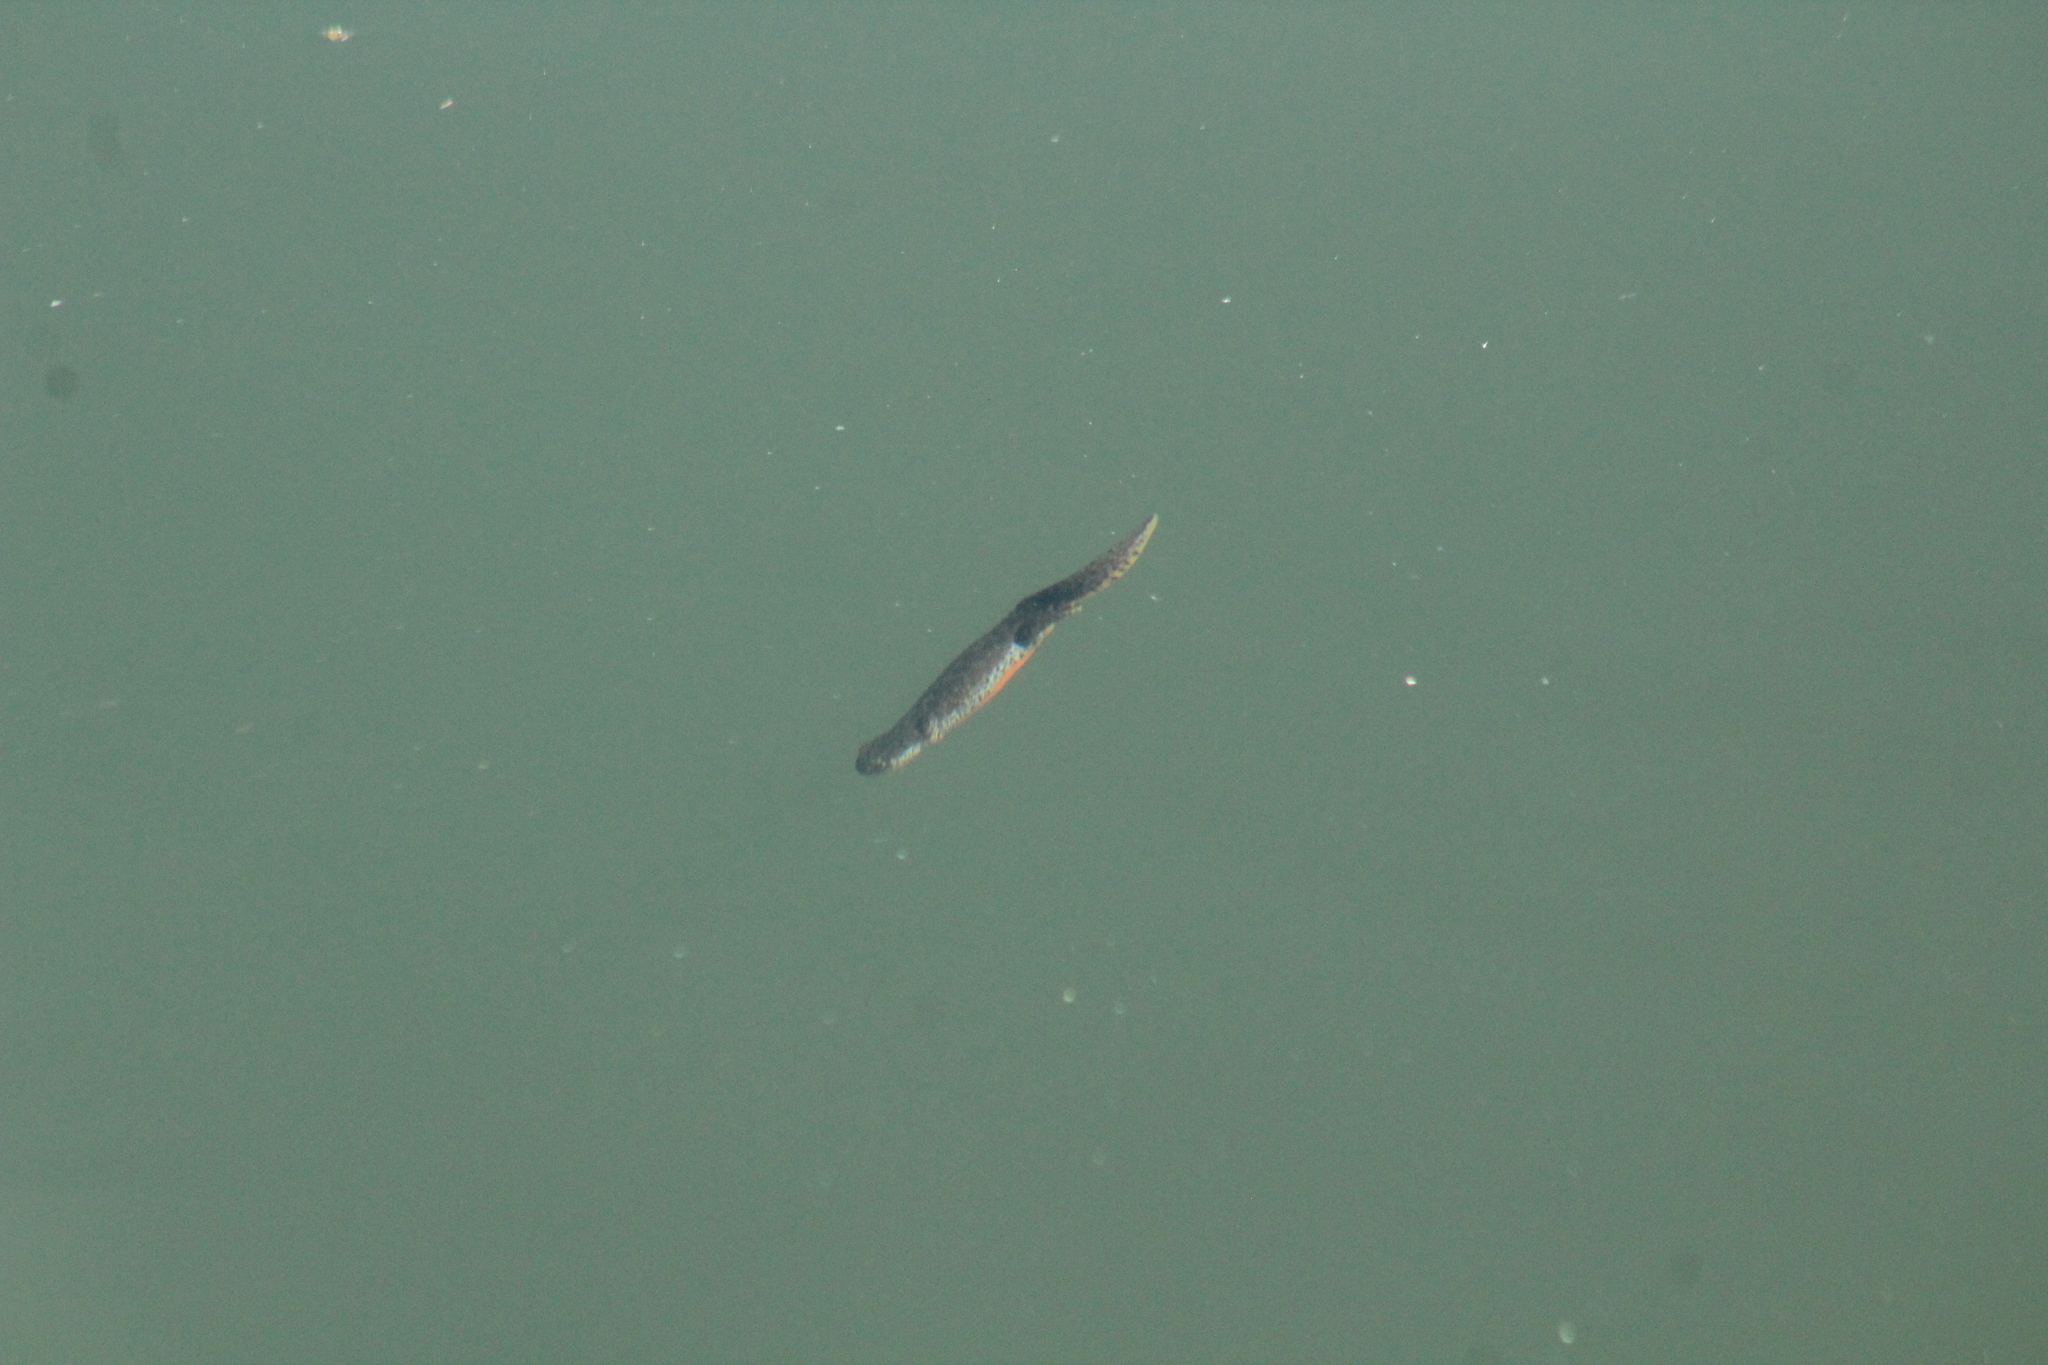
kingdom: Animalia
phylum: Chordata
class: Amphibia
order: Caudata
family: Salamandridae
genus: Ichthyosaura
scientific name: Ichthyosaura alpestris
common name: Alpine newt
